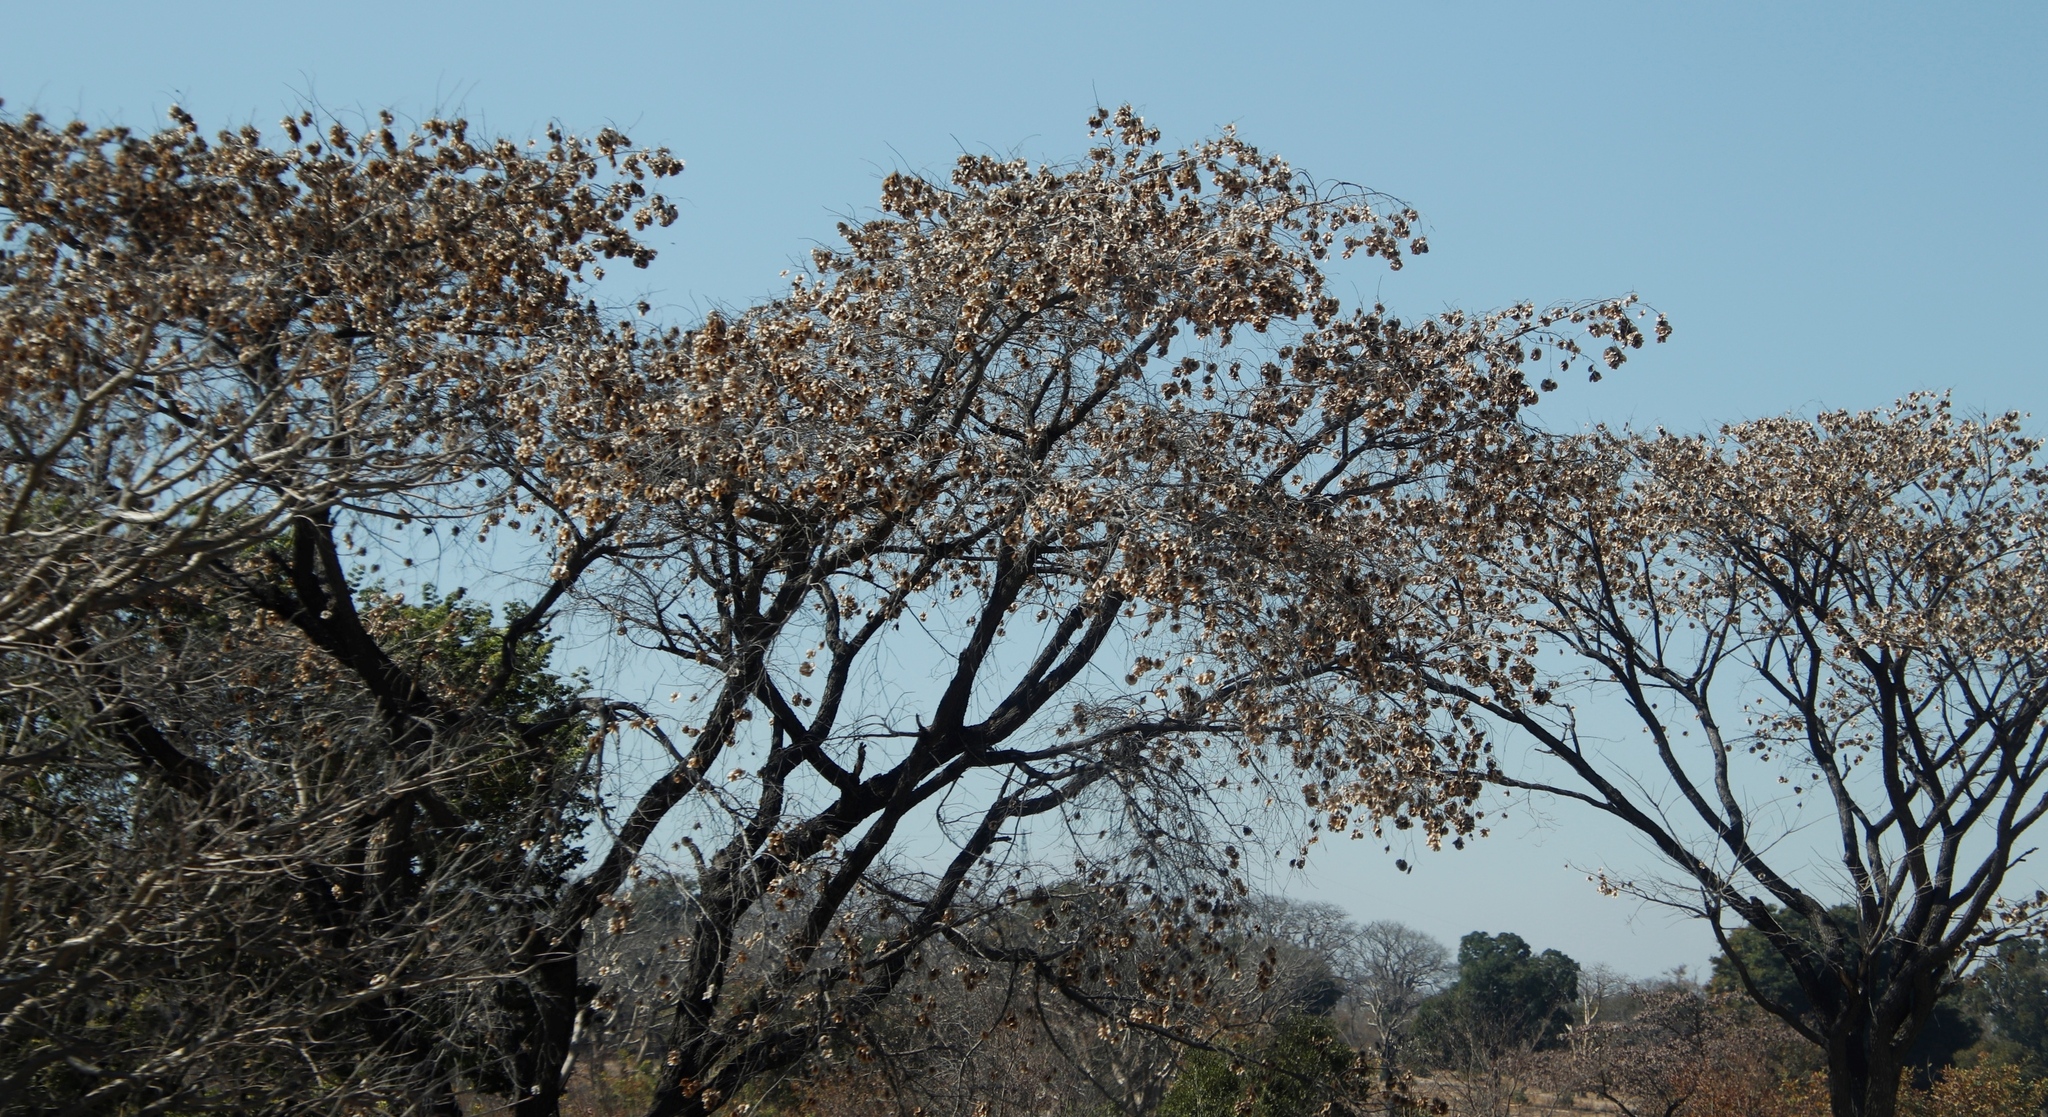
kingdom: Plantae
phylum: Tracheophyta
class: Magnoliopsida
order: Fabales
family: Fabaceae
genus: Pterocarpus
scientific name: Pterocarpus angolensis
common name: Bloodwood tree
